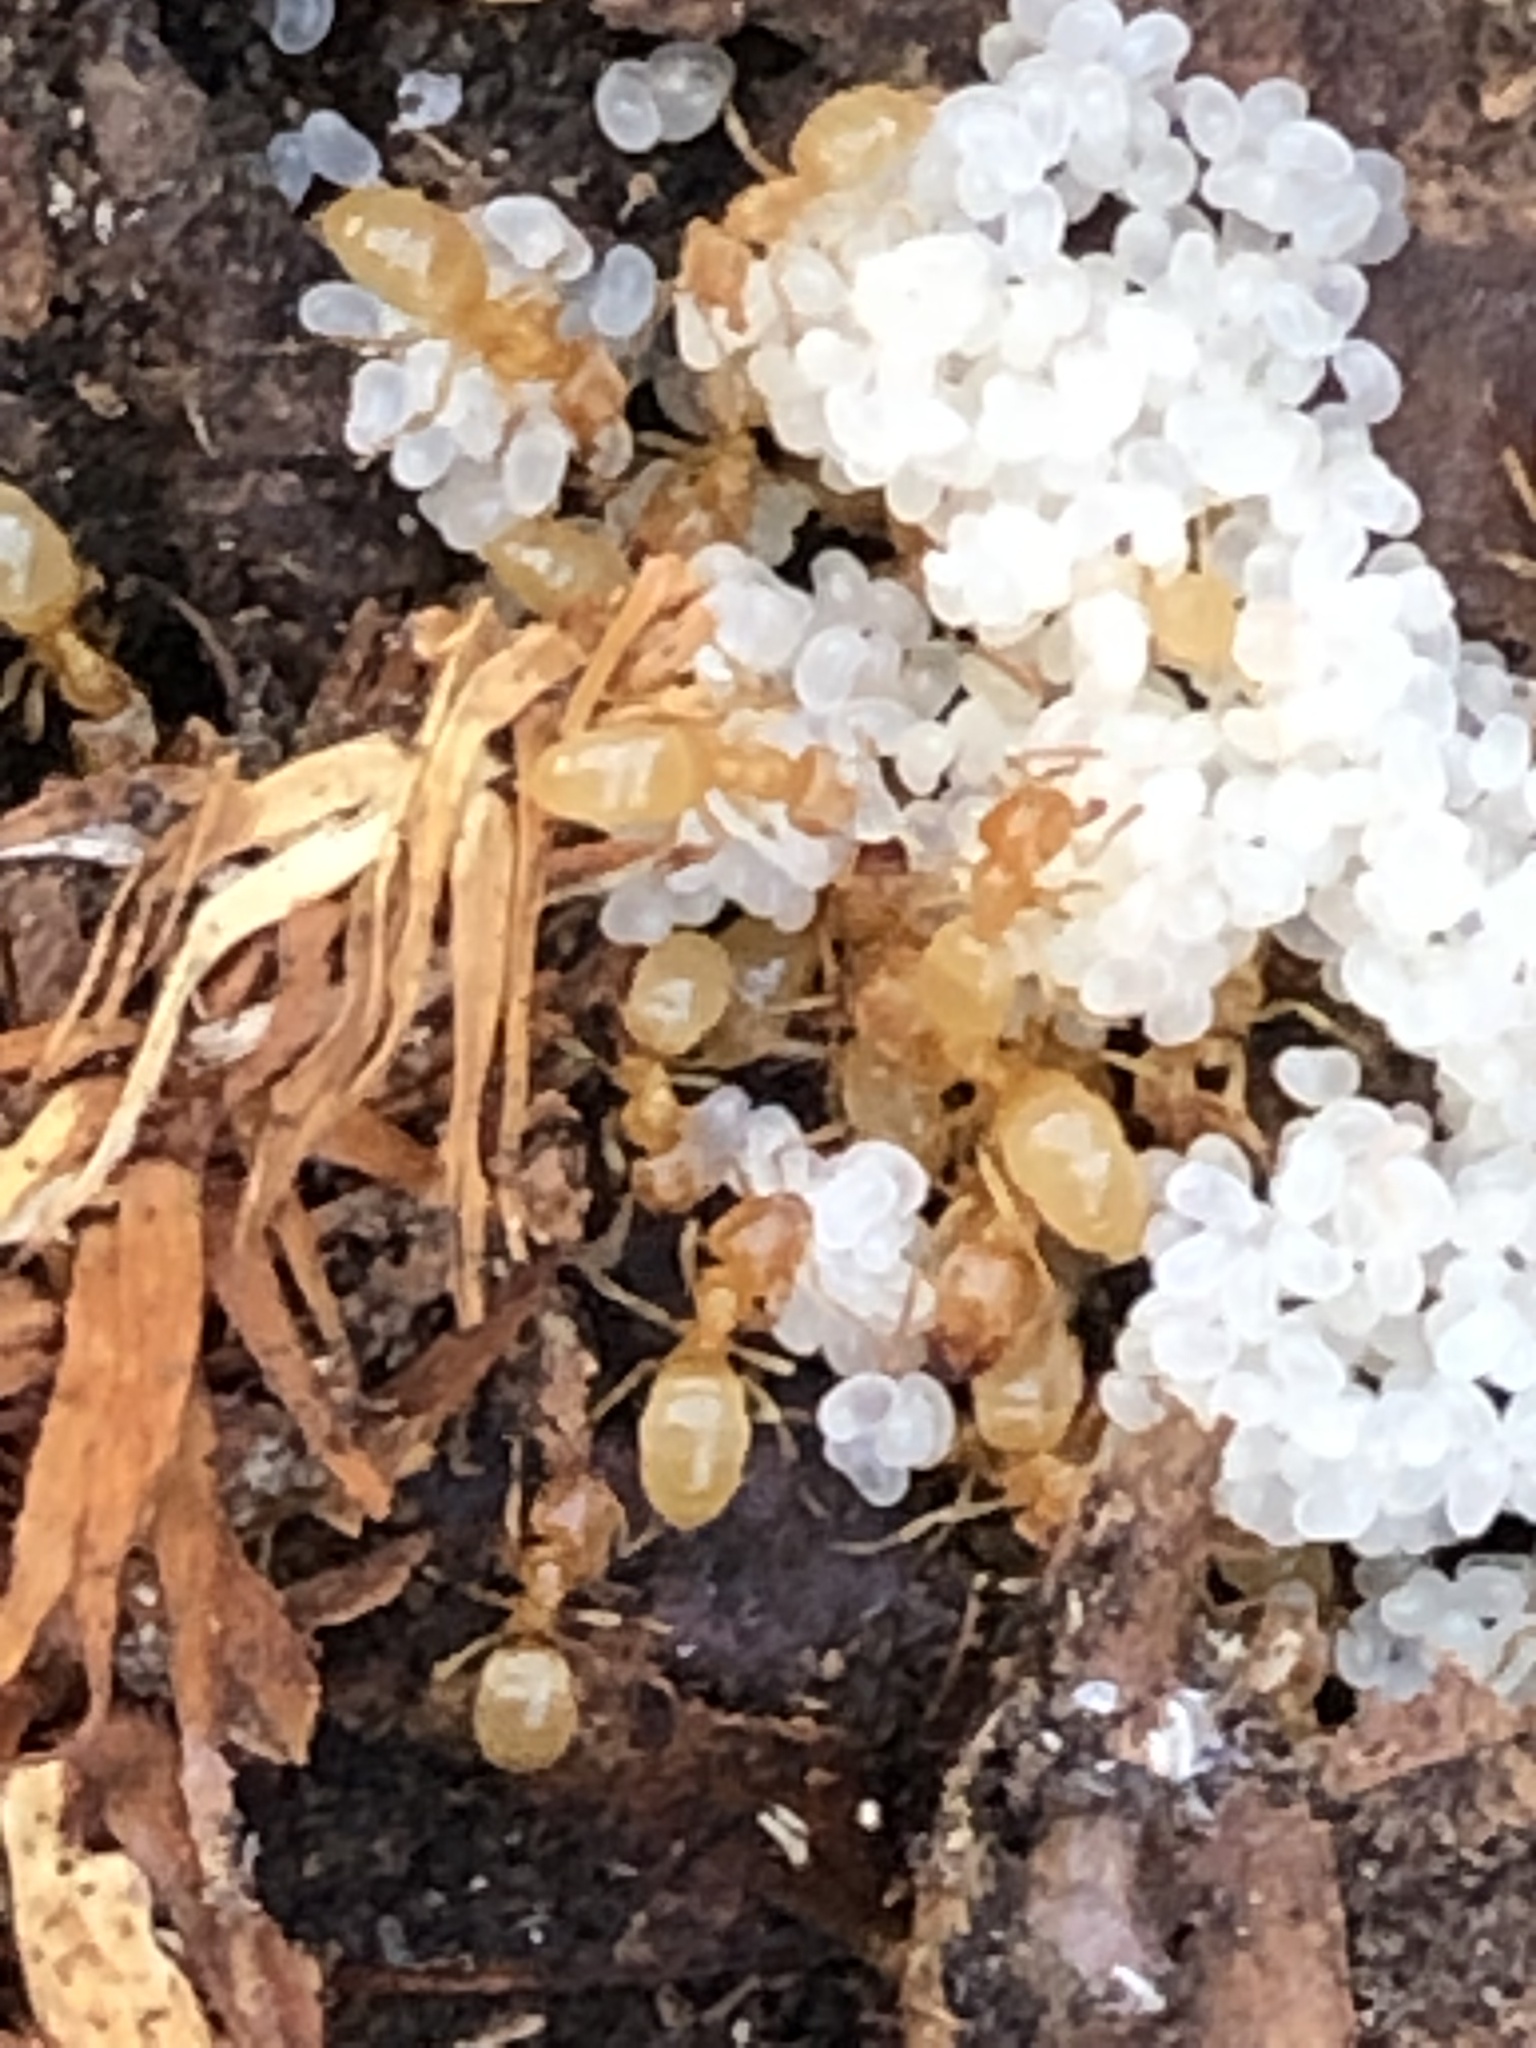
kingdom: Animalia
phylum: Arthropoda
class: Insecta
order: Hymenoptera
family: Formicidae
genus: Lasius
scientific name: Lasius nearcticus
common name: New world fuzzy ant
